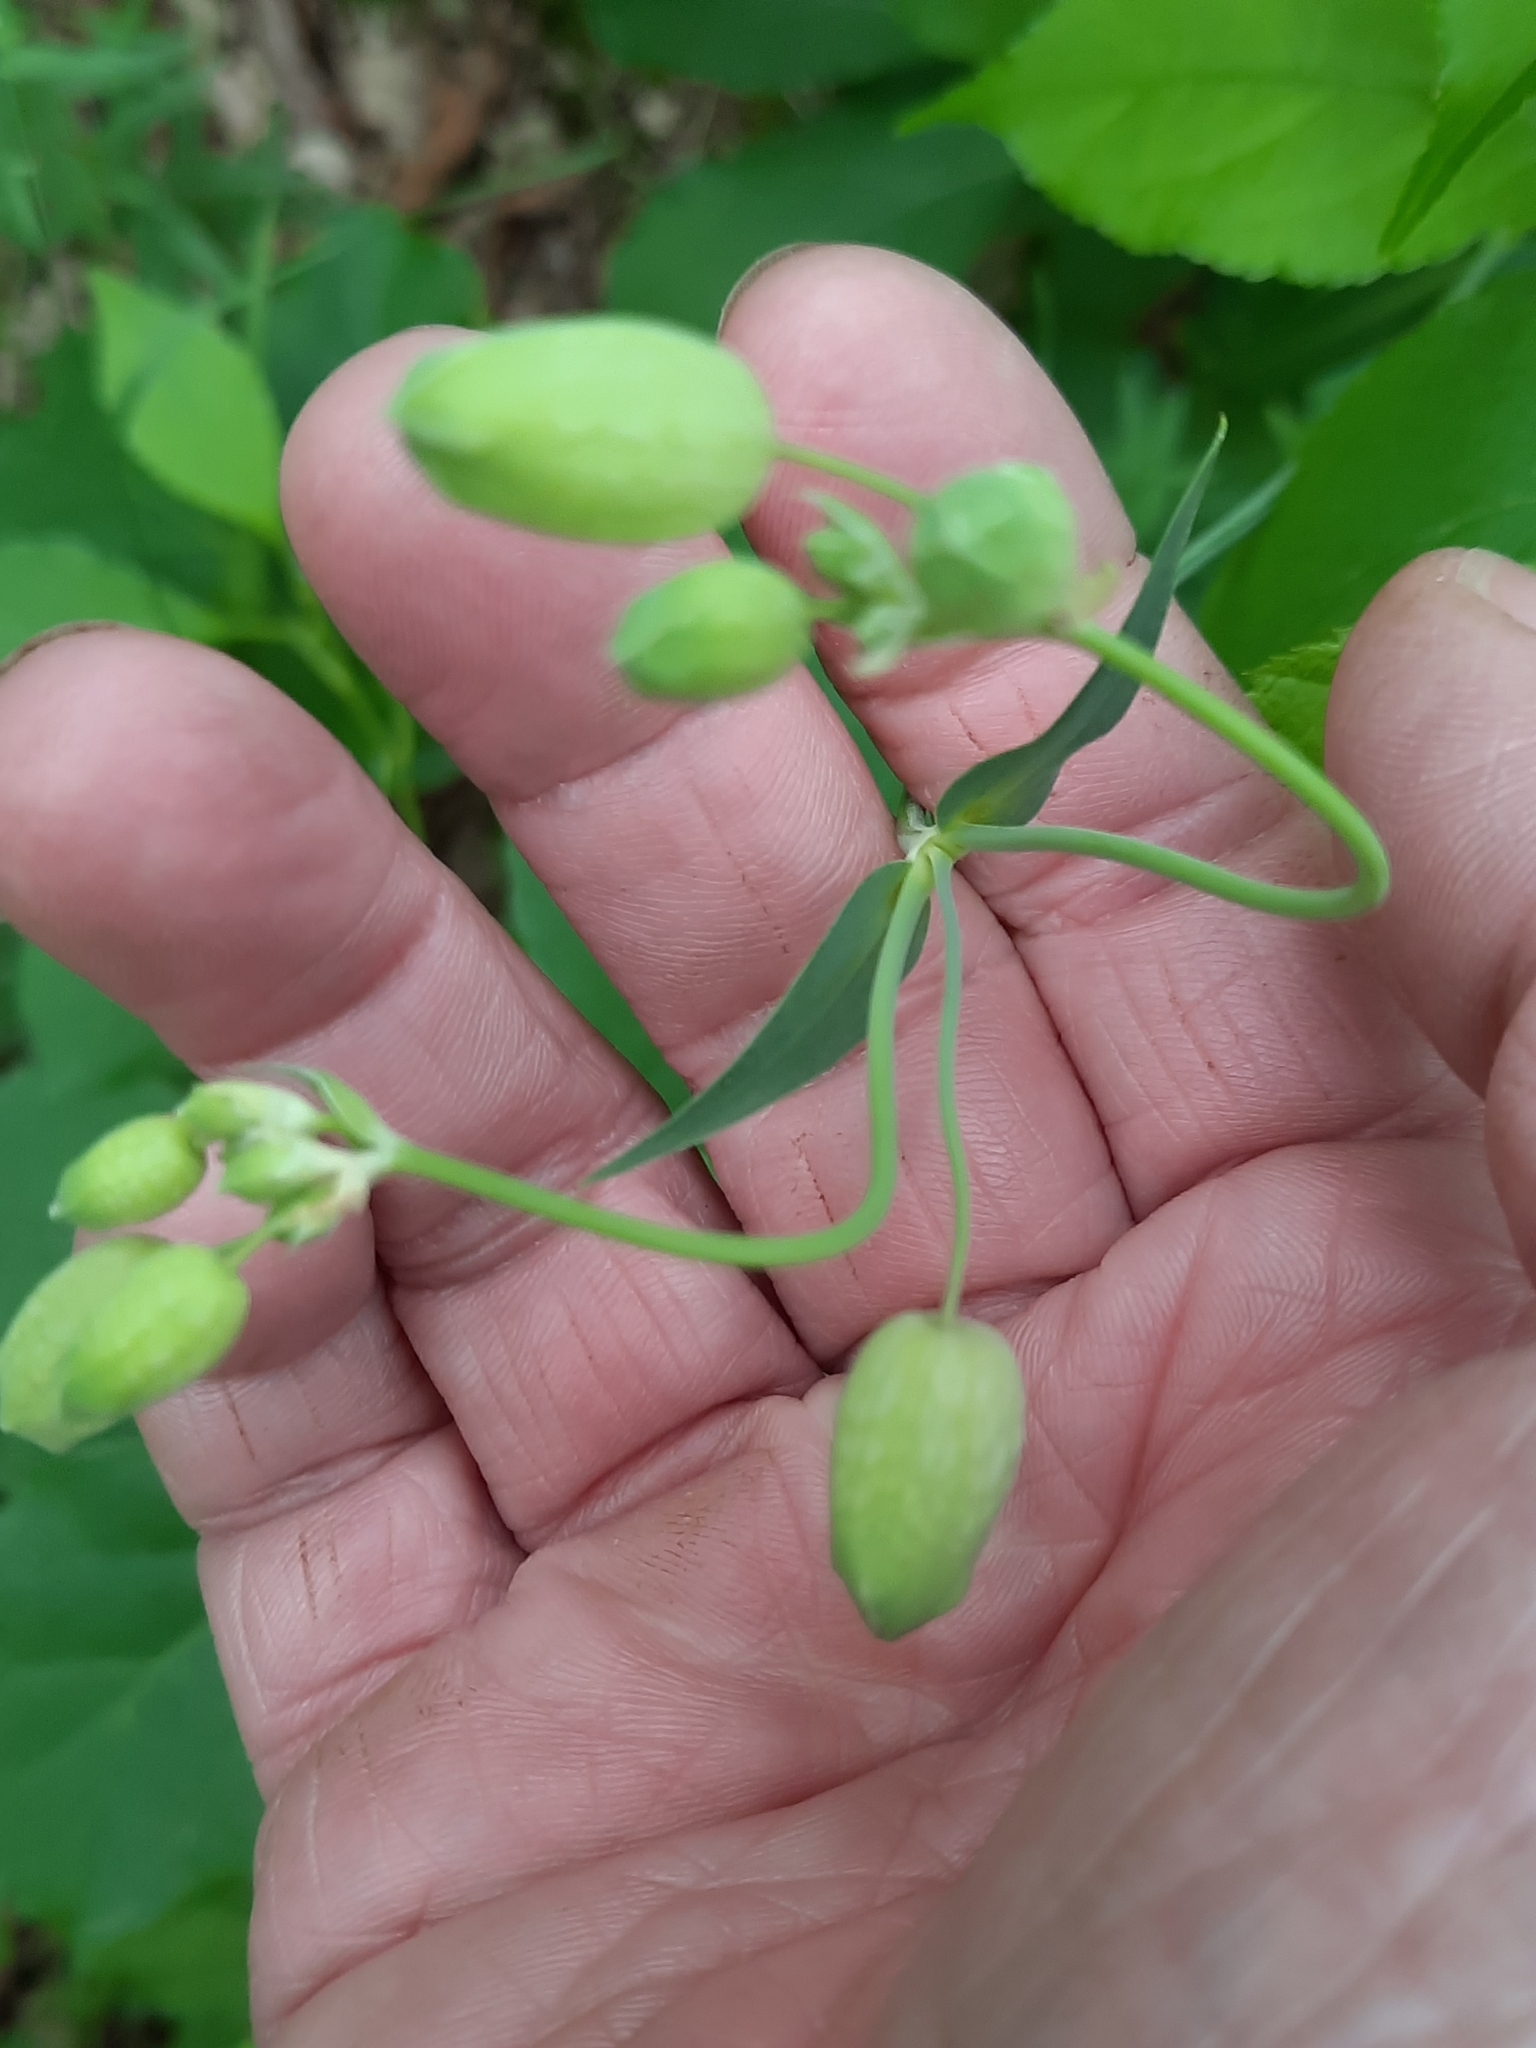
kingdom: Plantae
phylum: Tracheophyta
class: Magnoliopsida
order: Caryophyllales
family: Caryophyllaceae
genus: Silene
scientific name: Silene vulgaris
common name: Bladder campion
